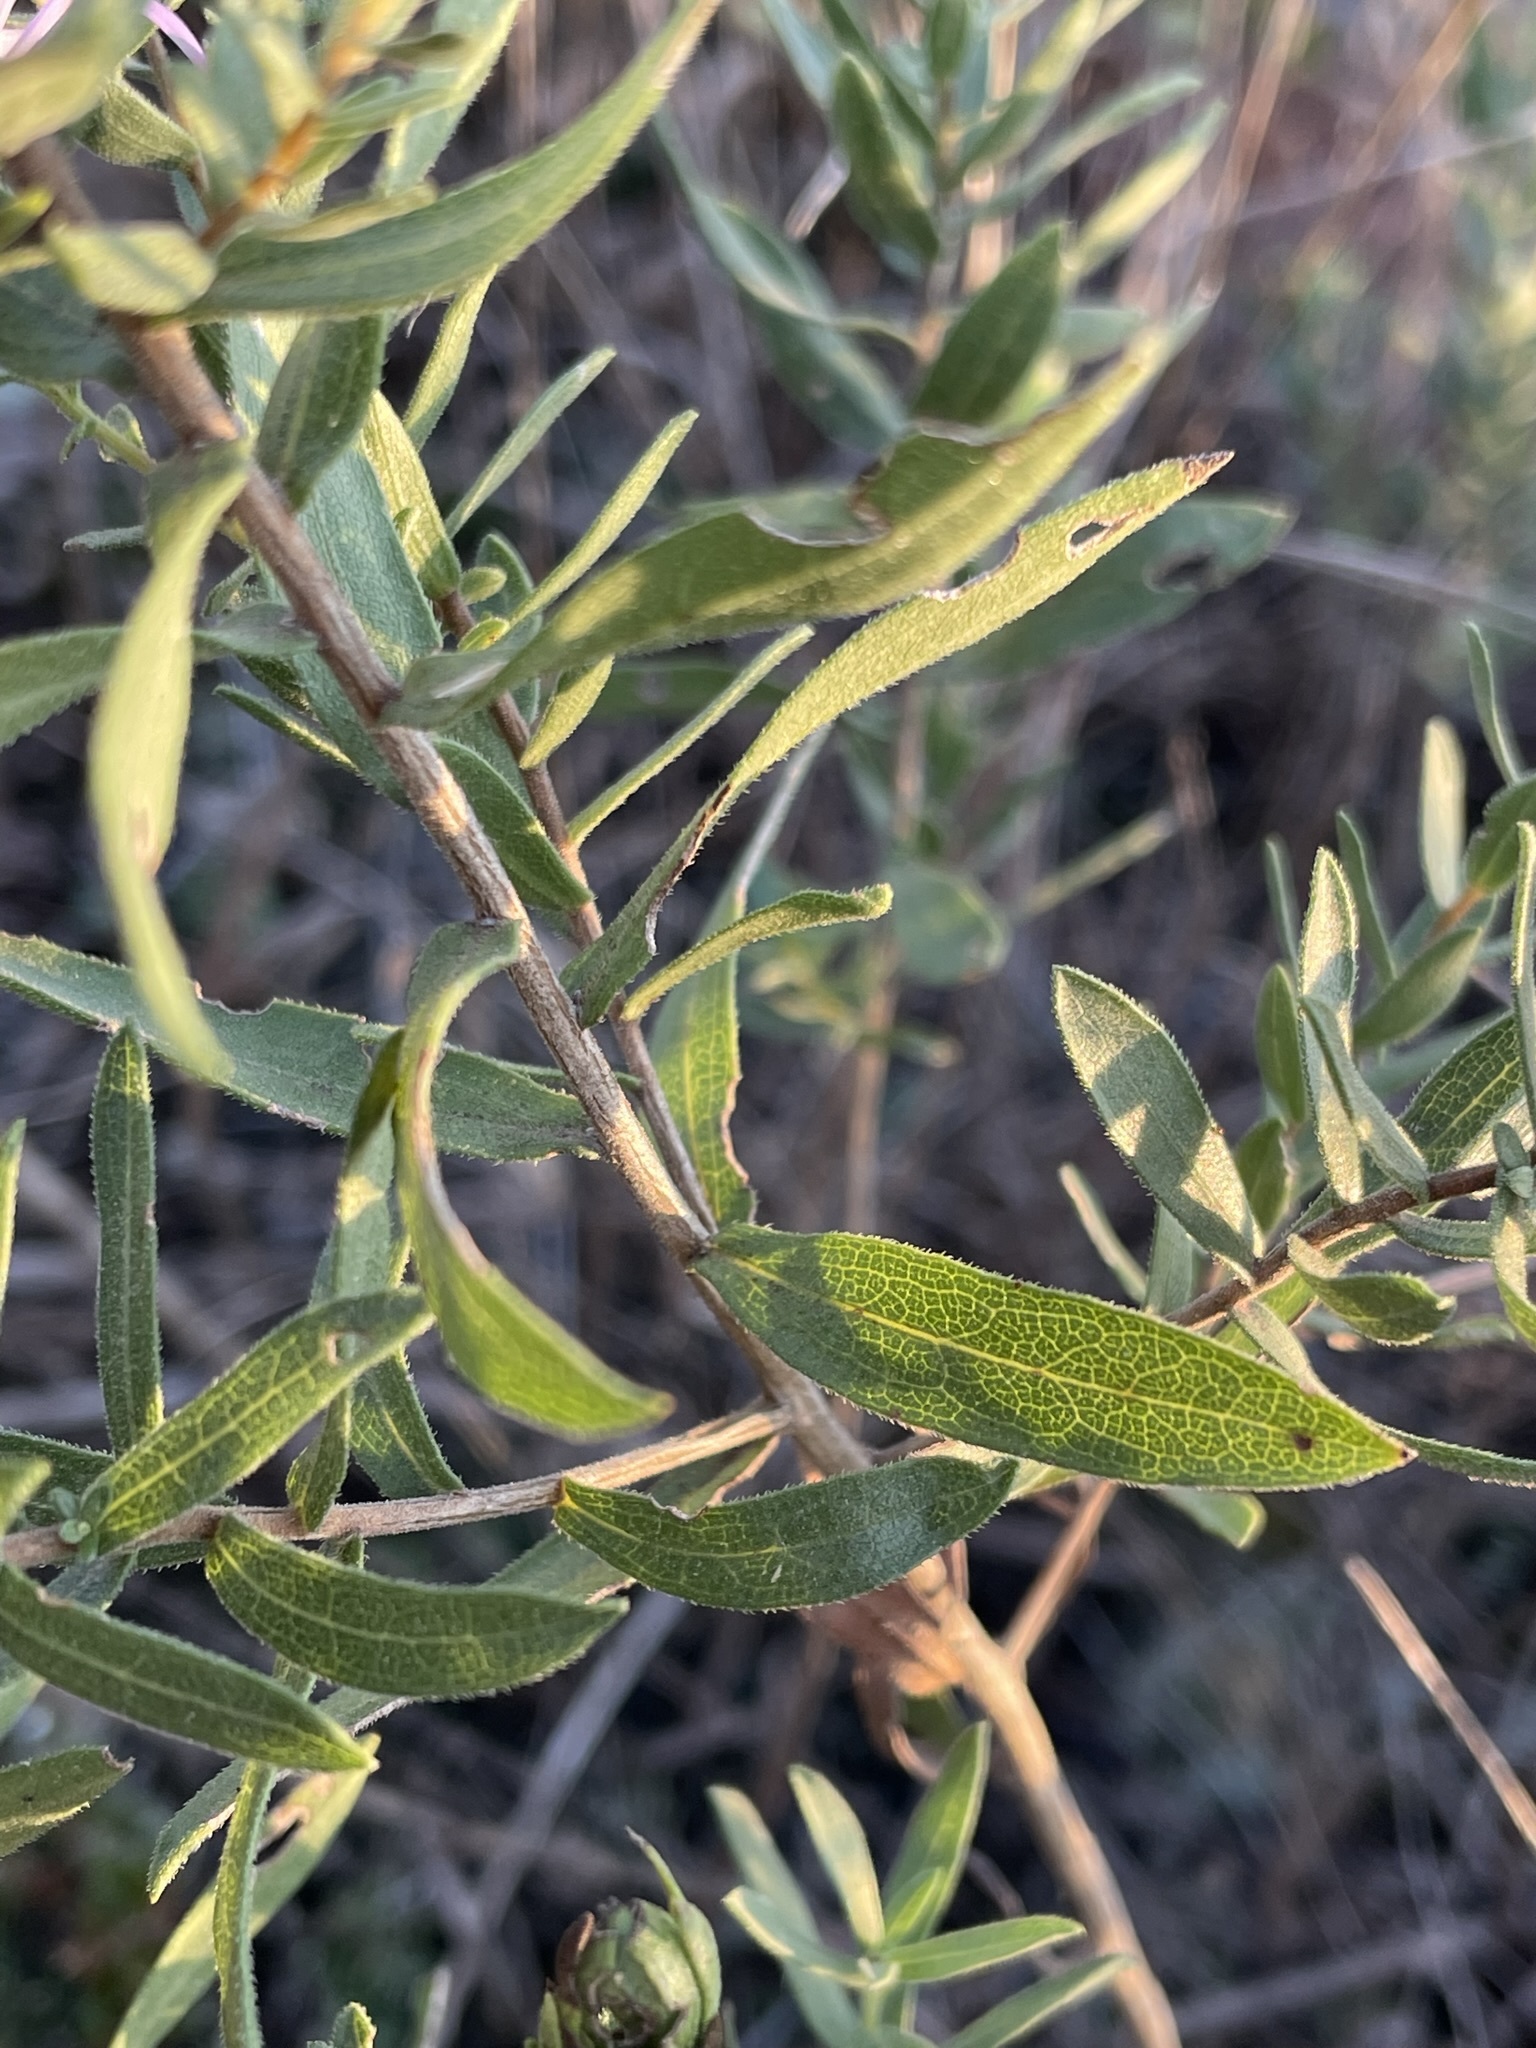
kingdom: Plantae
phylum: Tracheophyta
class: Magnoliopsida
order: Asterales
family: Asteraceae
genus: Symphyotrichum
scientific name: Symphyotrichum oblongifolium
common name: Aromatic aster
